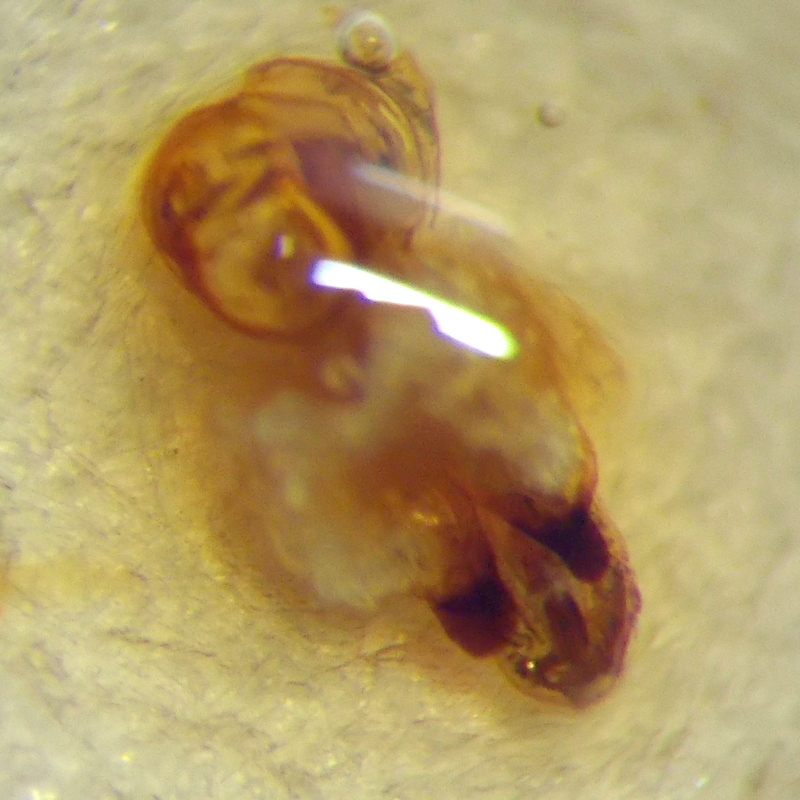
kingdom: Animalia
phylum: Arthropoda
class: Insecta
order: Hemiptera
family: Scutelleridae
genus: Odontotarsus
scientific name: Odontotarsus robustus
